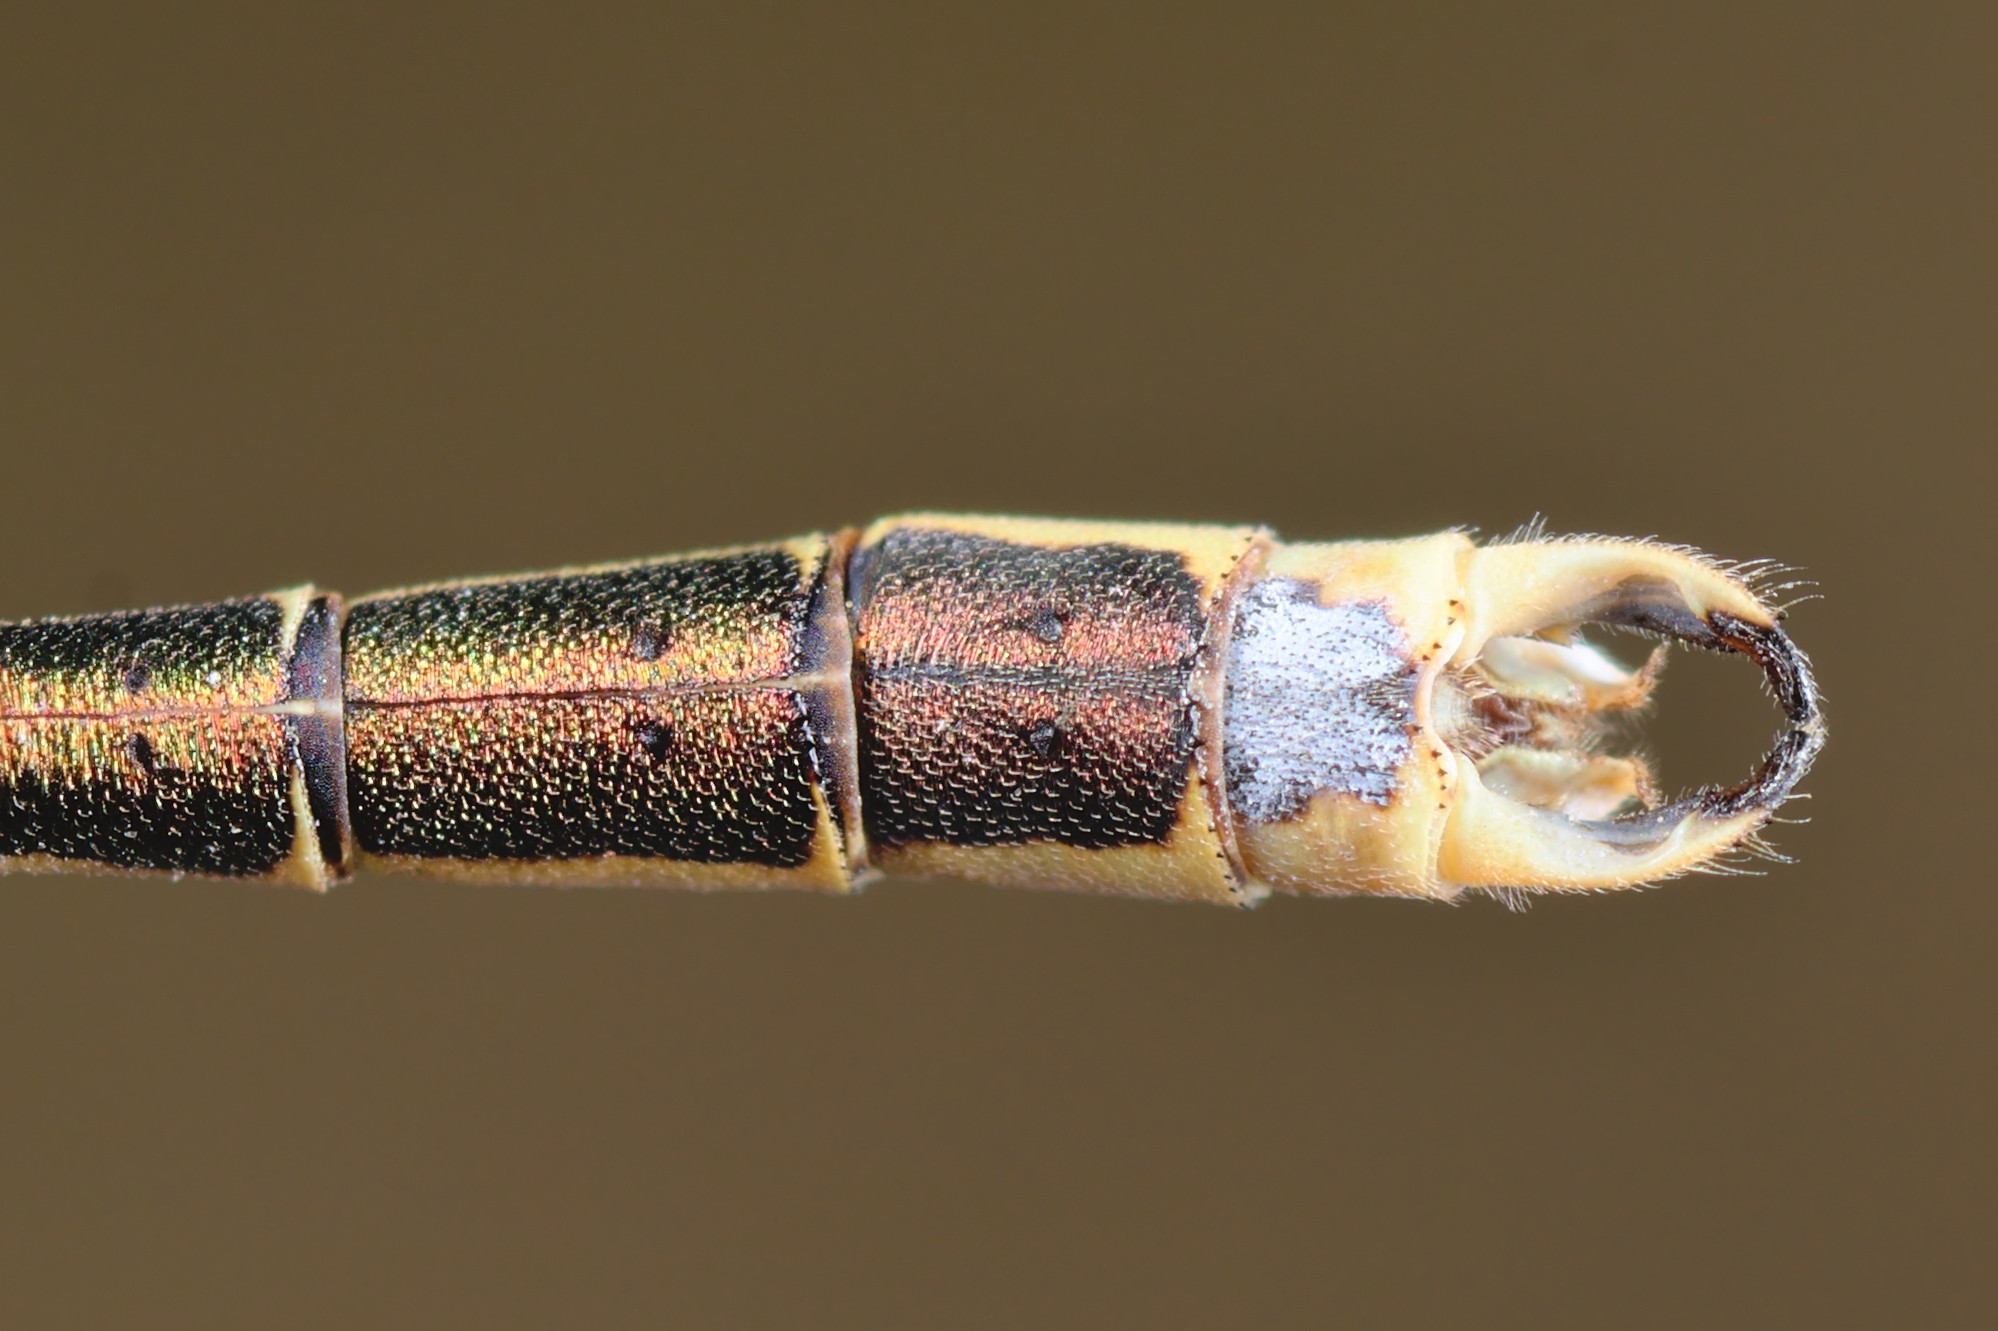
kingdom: Animalia
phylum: Arthropoda
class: Insecta
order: Odonata
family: Lestidae
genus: Lestes
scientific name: Lestes barbarus
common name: Migrant spreadwing
